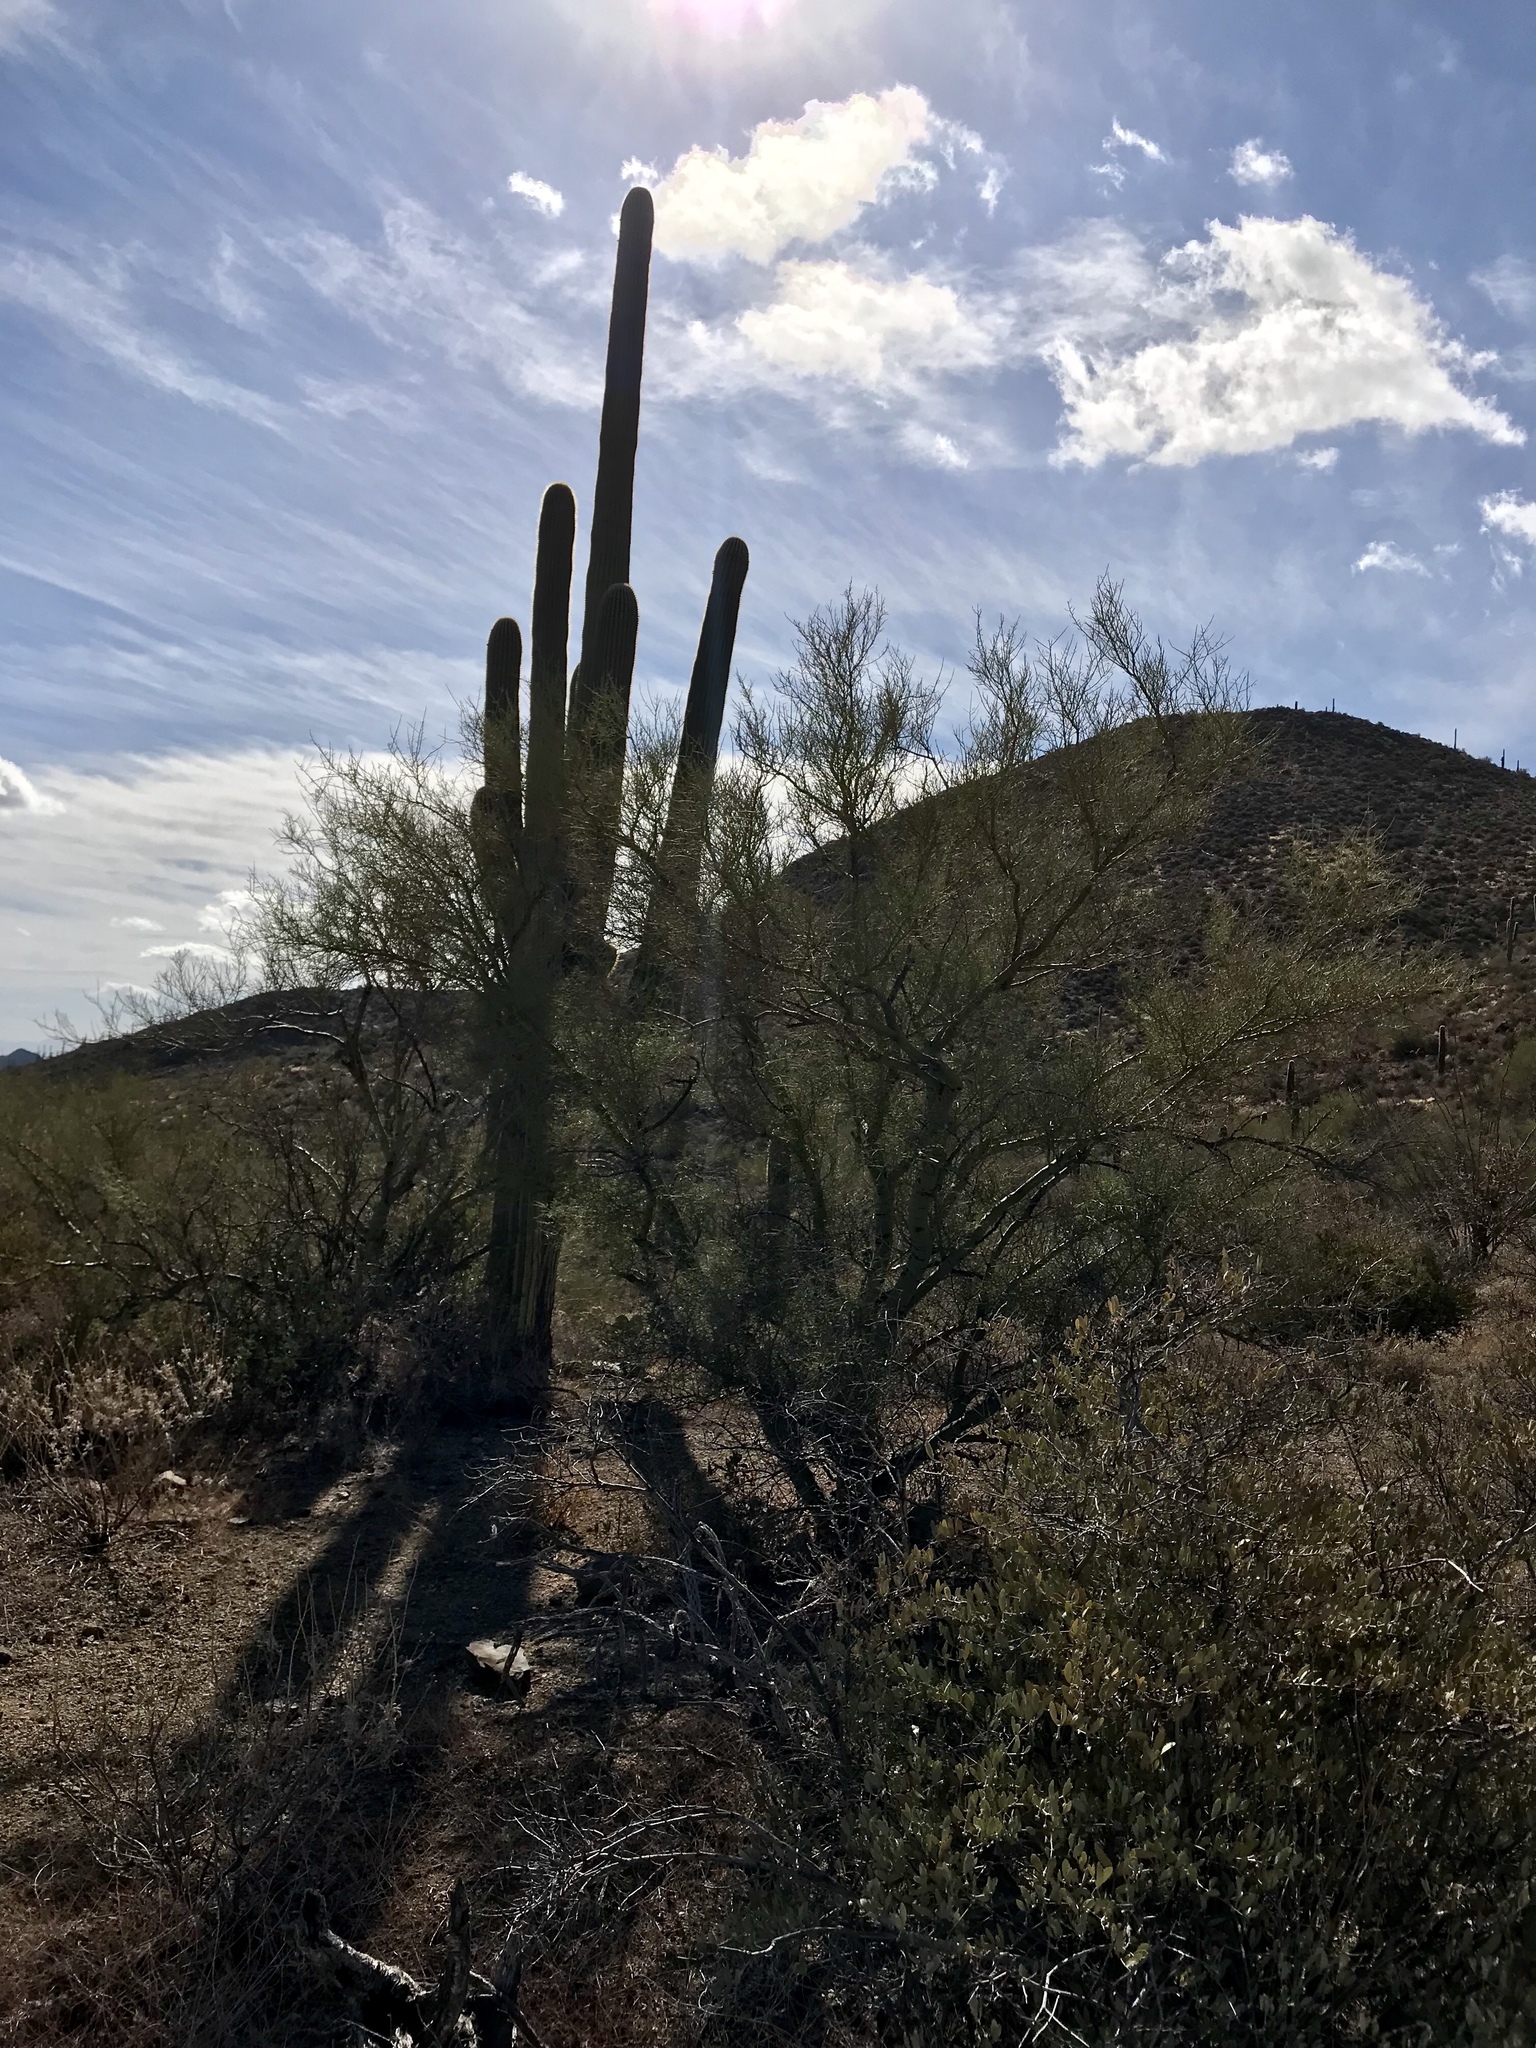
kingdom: Plantae
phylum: Tracheophyta
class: Magnoliopsida
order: Fabales
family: Fabaceae
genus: Parkinsonia
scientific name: Parkinsonia microphylla
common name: Yellow paloverde
